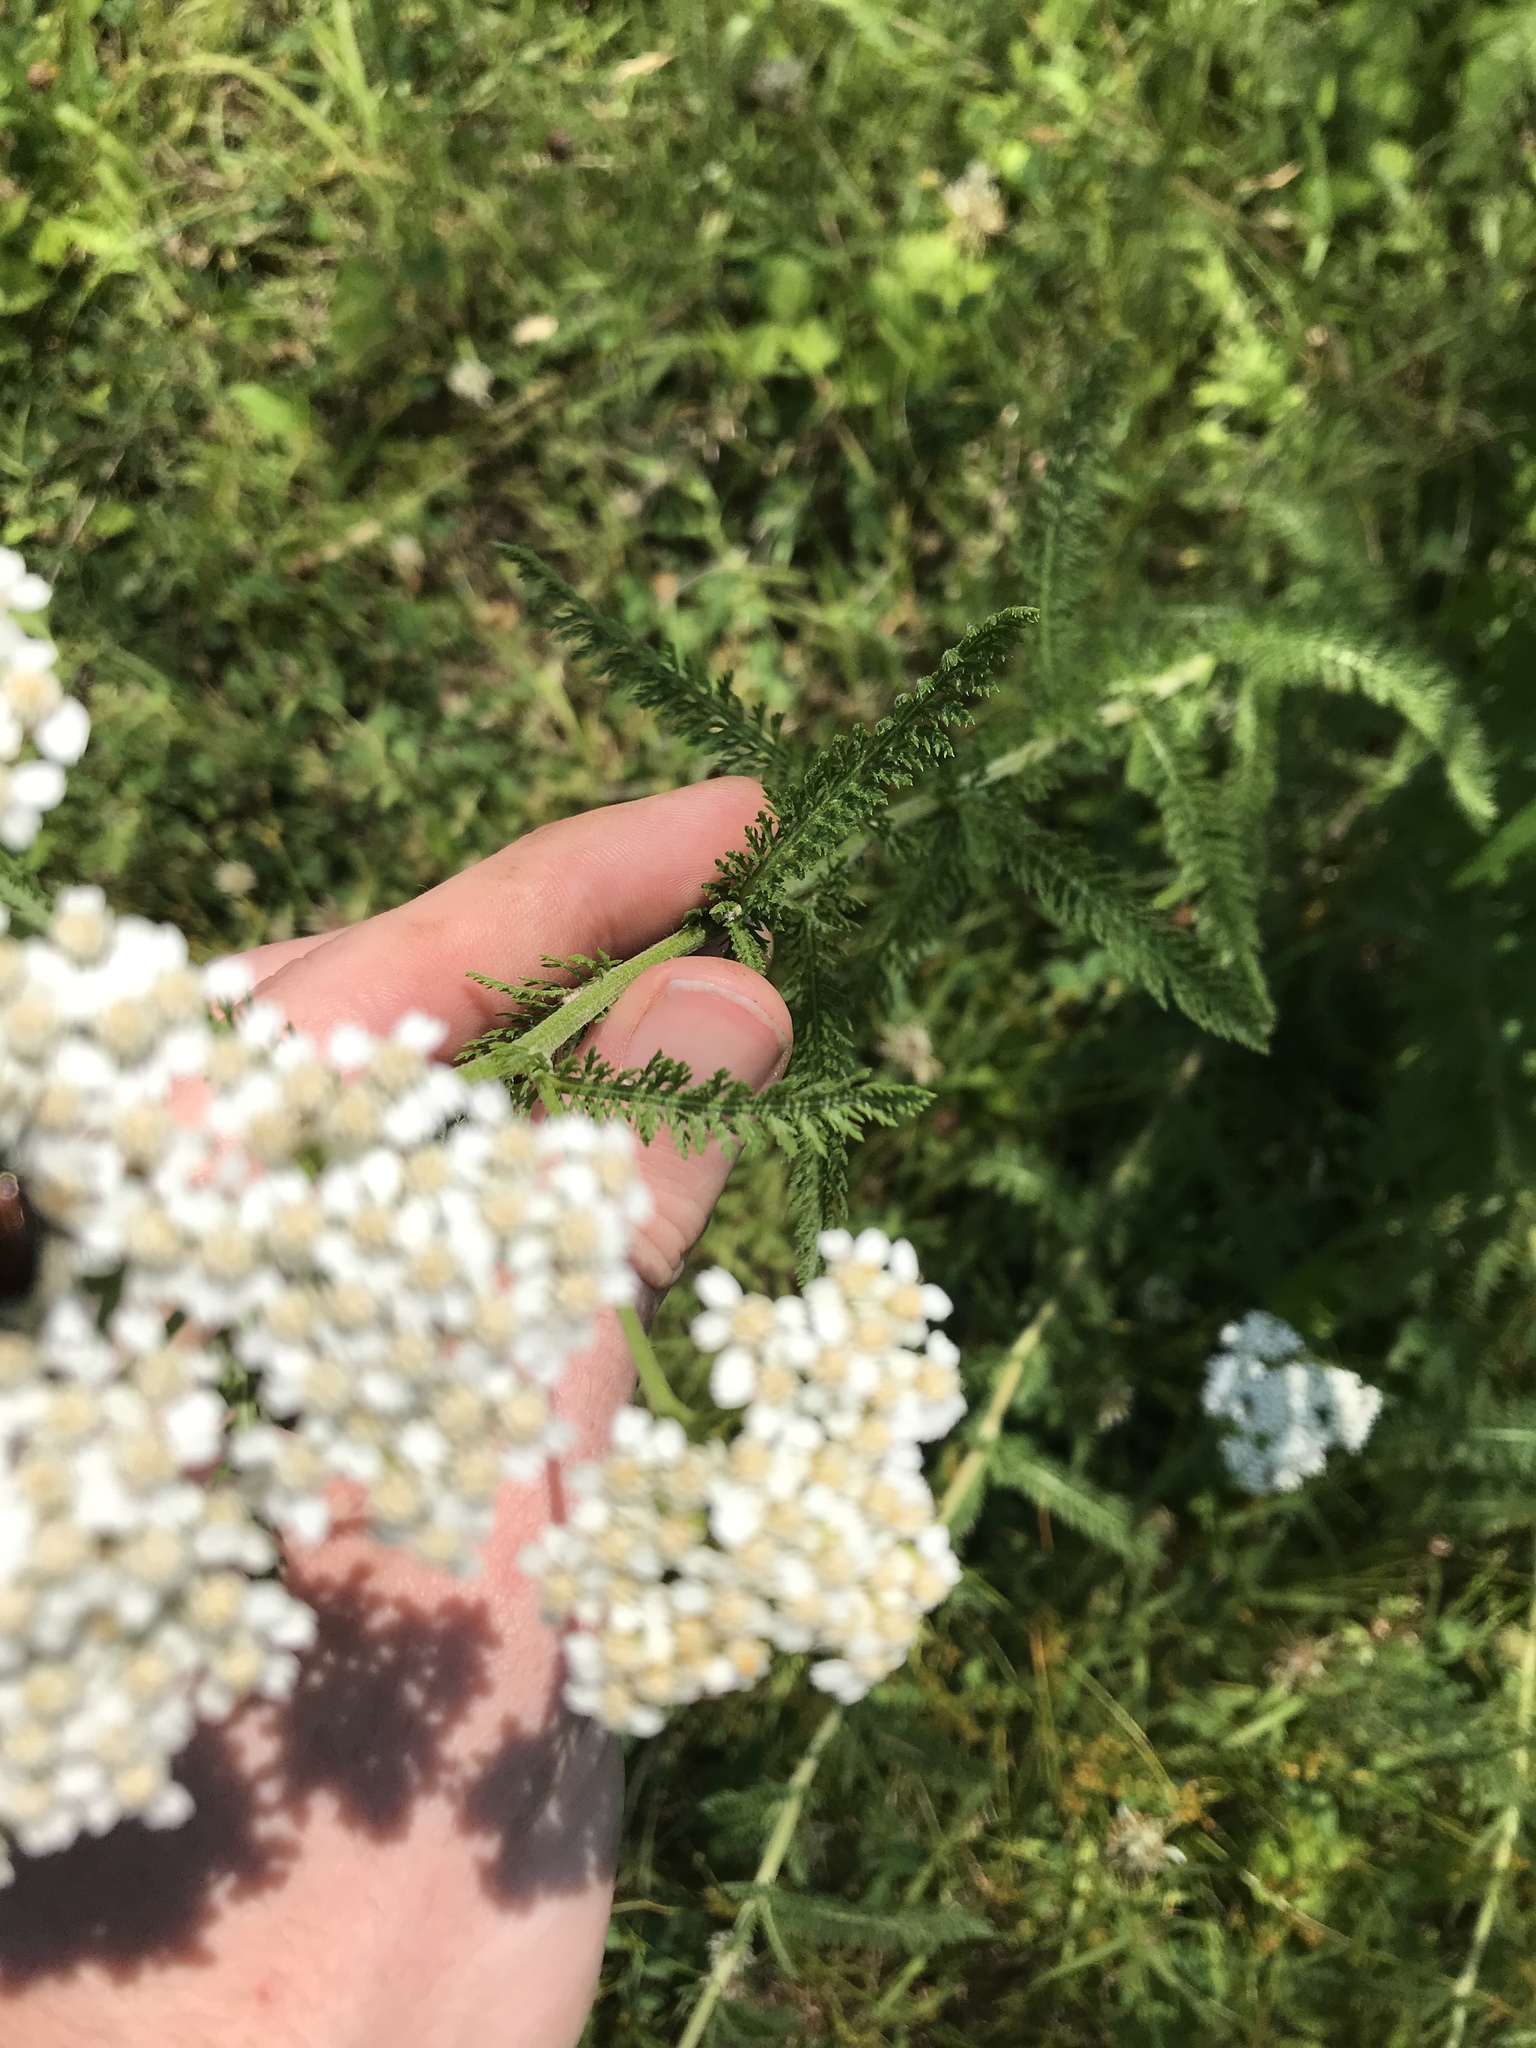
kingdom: Plantae
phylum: Tracheophyta
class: Magnoliopsida
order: Asterales
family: Asteraceae
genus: Achillea
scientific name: Achillea millefolium
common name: Yarrow
